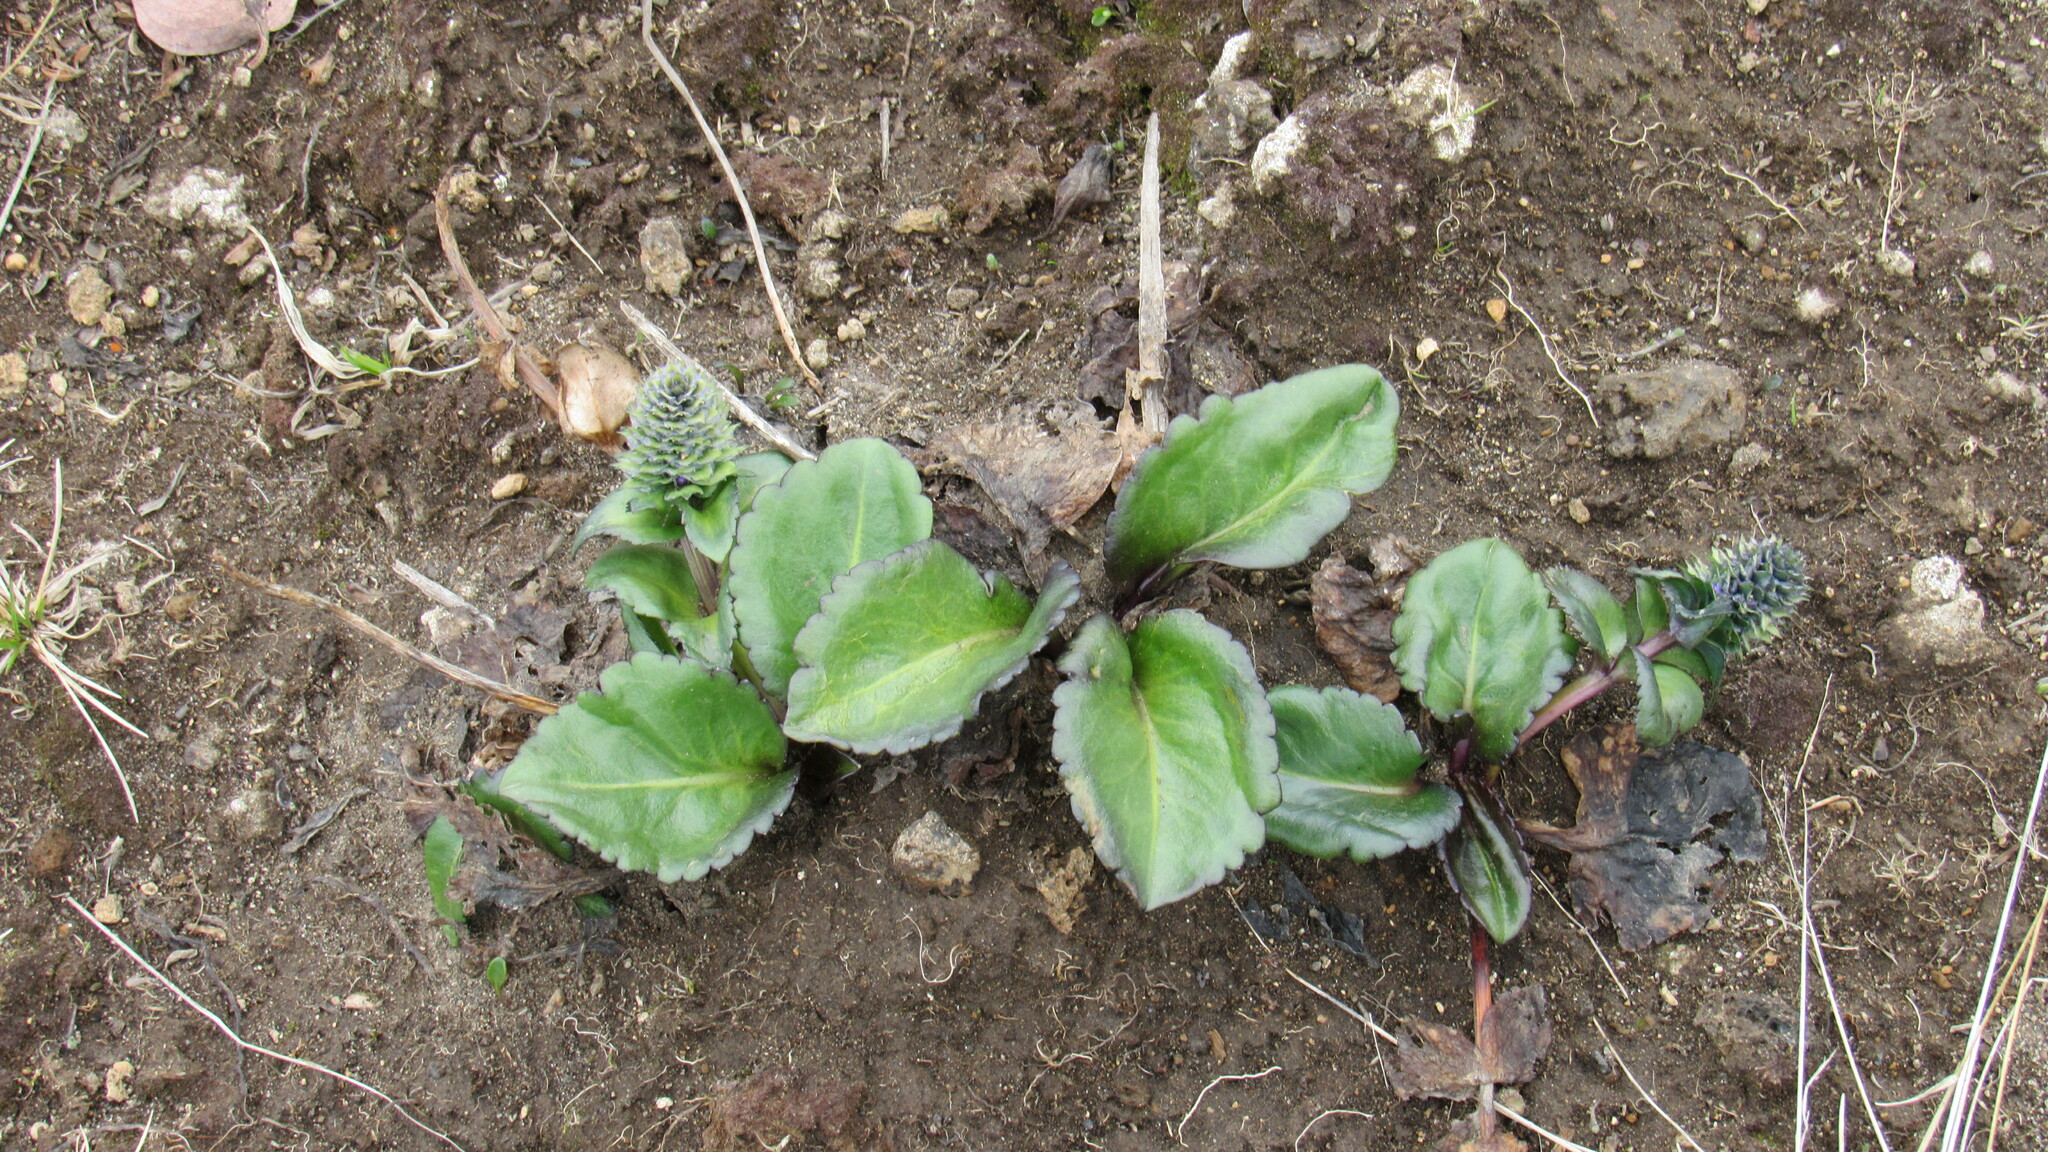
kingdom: Plantae
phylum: Tracheophyta
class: Magnoliopsida
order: Lamiales
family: Plantaginaceae
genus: Lagotis
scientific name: Lagotis glauca
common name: Glaucous weaselsnout
